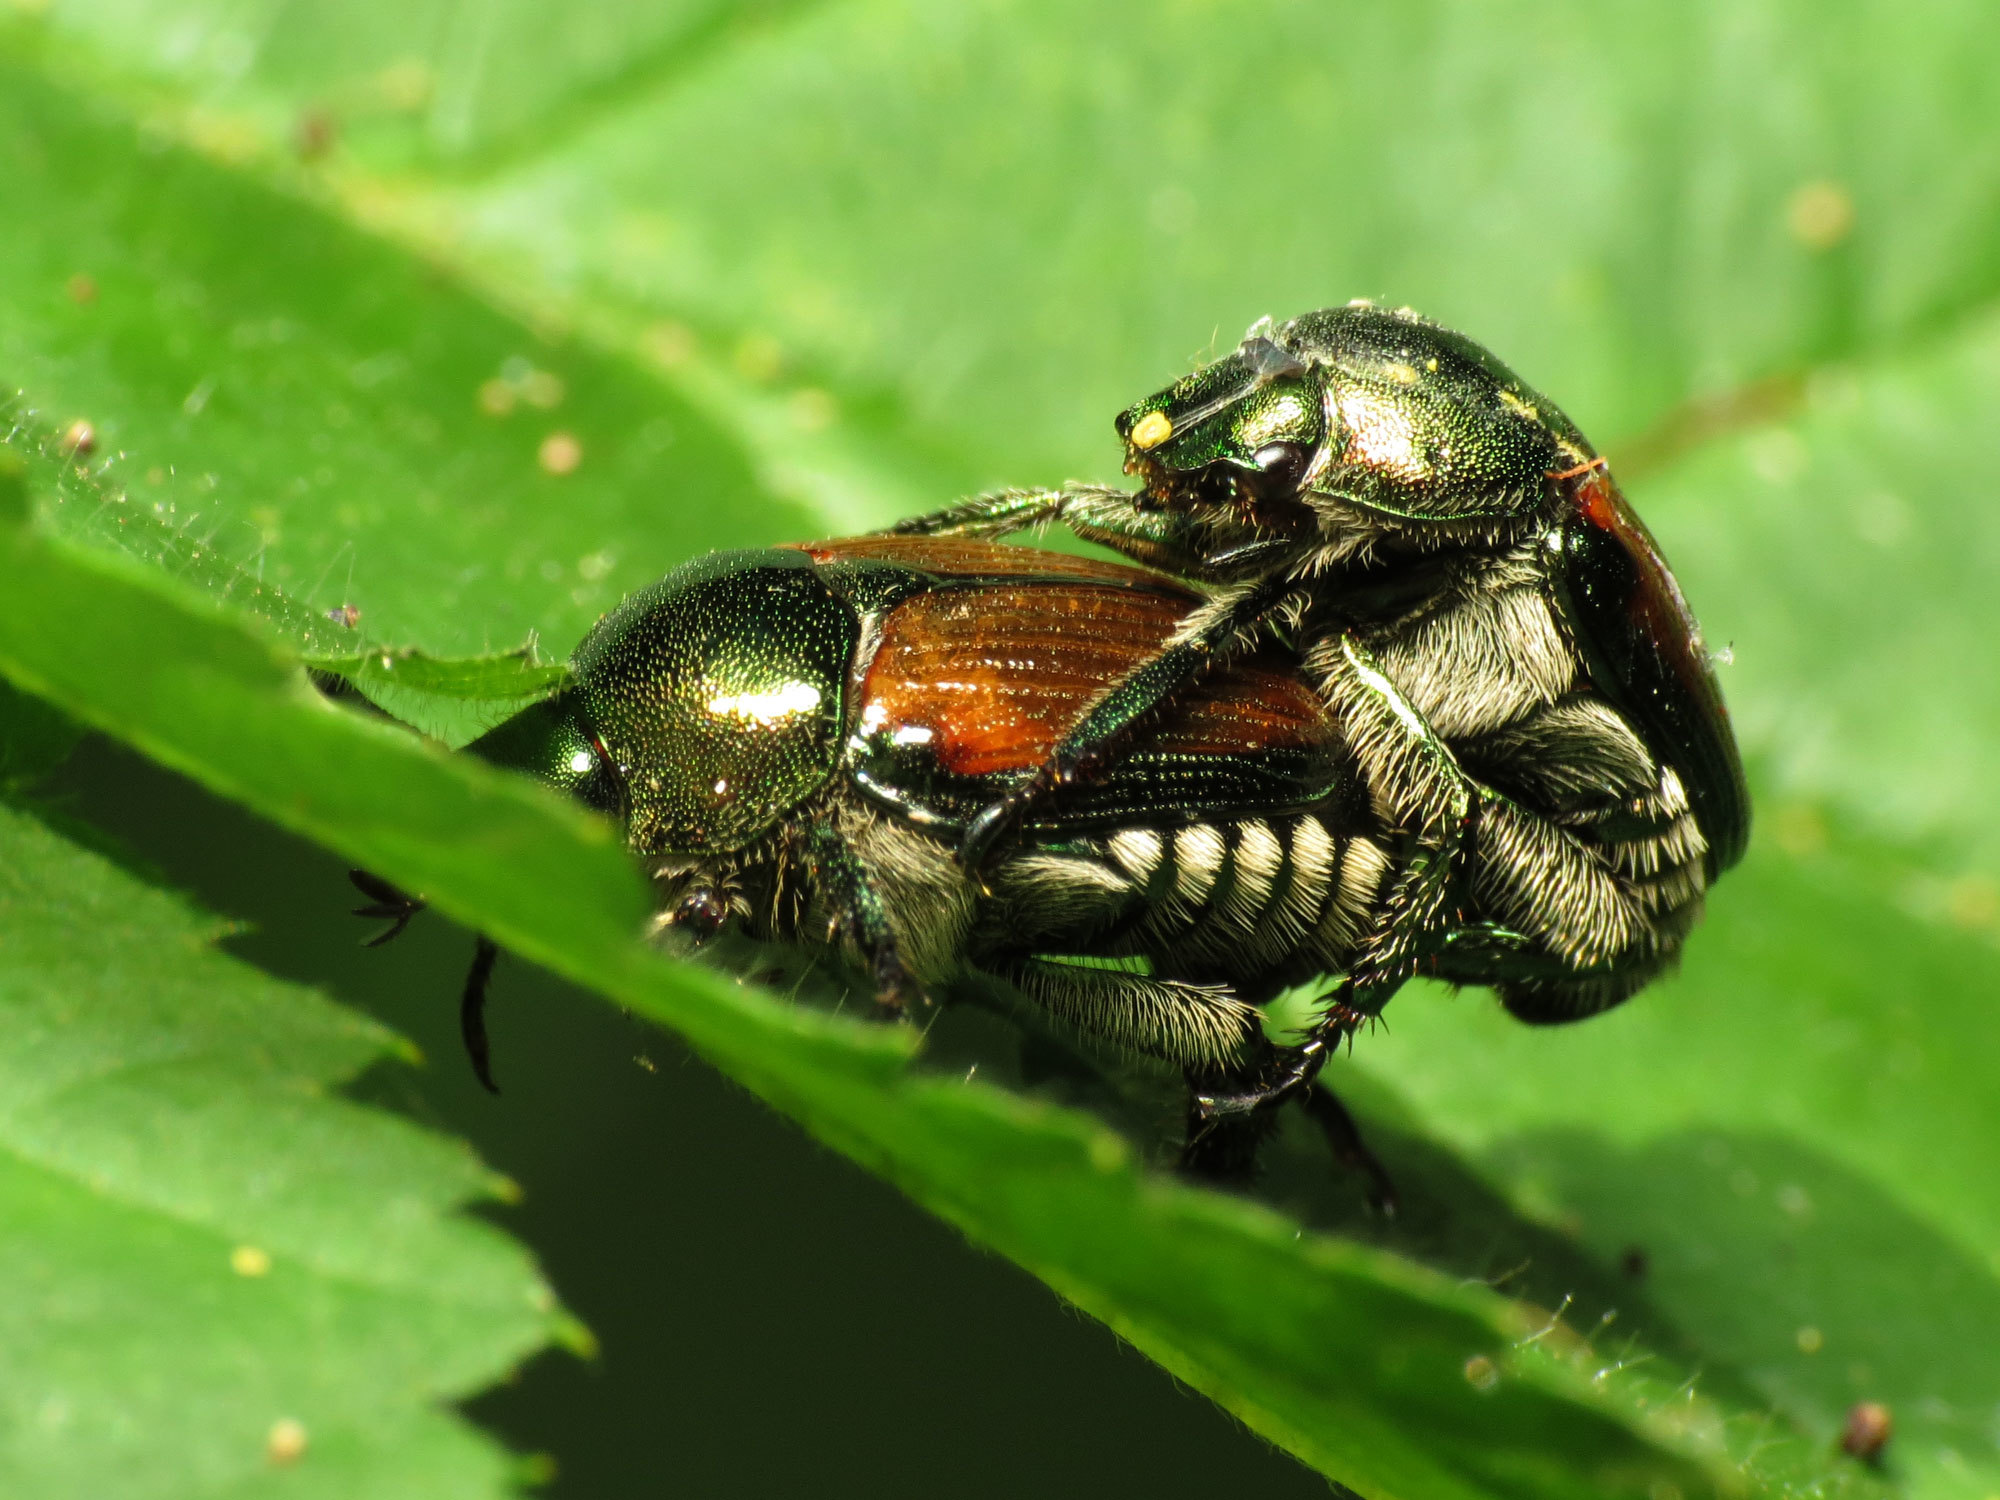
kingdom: Animalia
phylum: Arthropoda
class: Insecta
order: Coleoptera
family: Scarabaeidae
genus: Popillia
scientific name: Popillia japonica
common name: Japanese beetle
